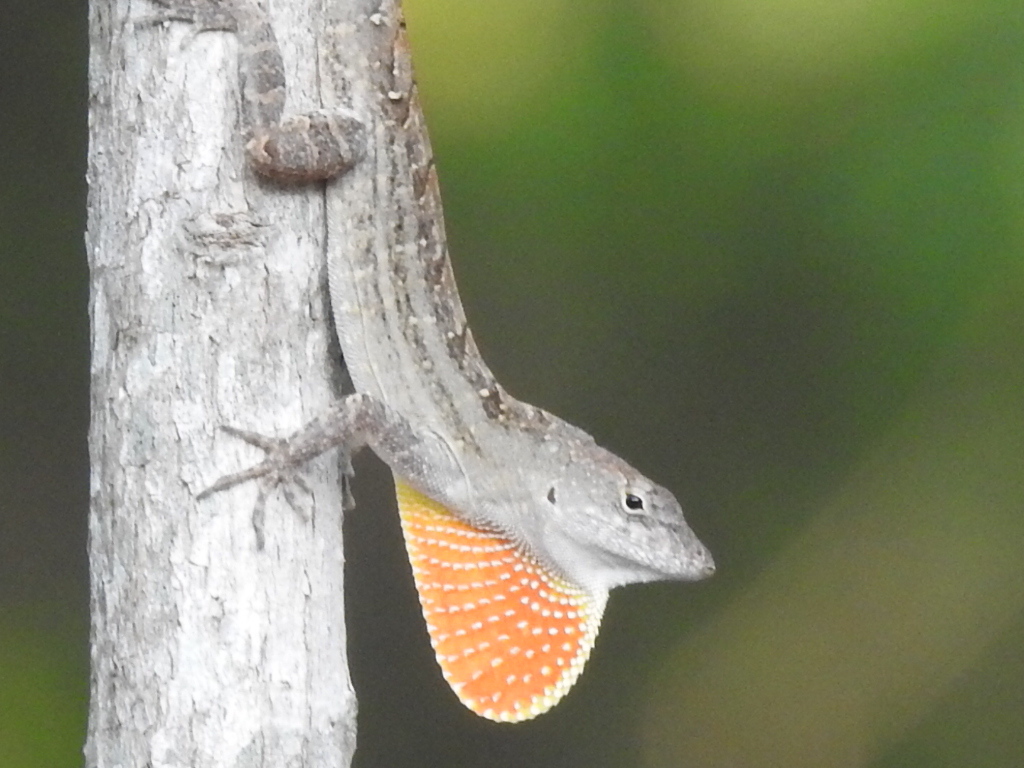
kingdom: Animalia
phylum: Chordata
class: Squamata
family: Dactyloidae
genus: Anolis
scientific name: Anolis sagrei
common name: Brown anole
